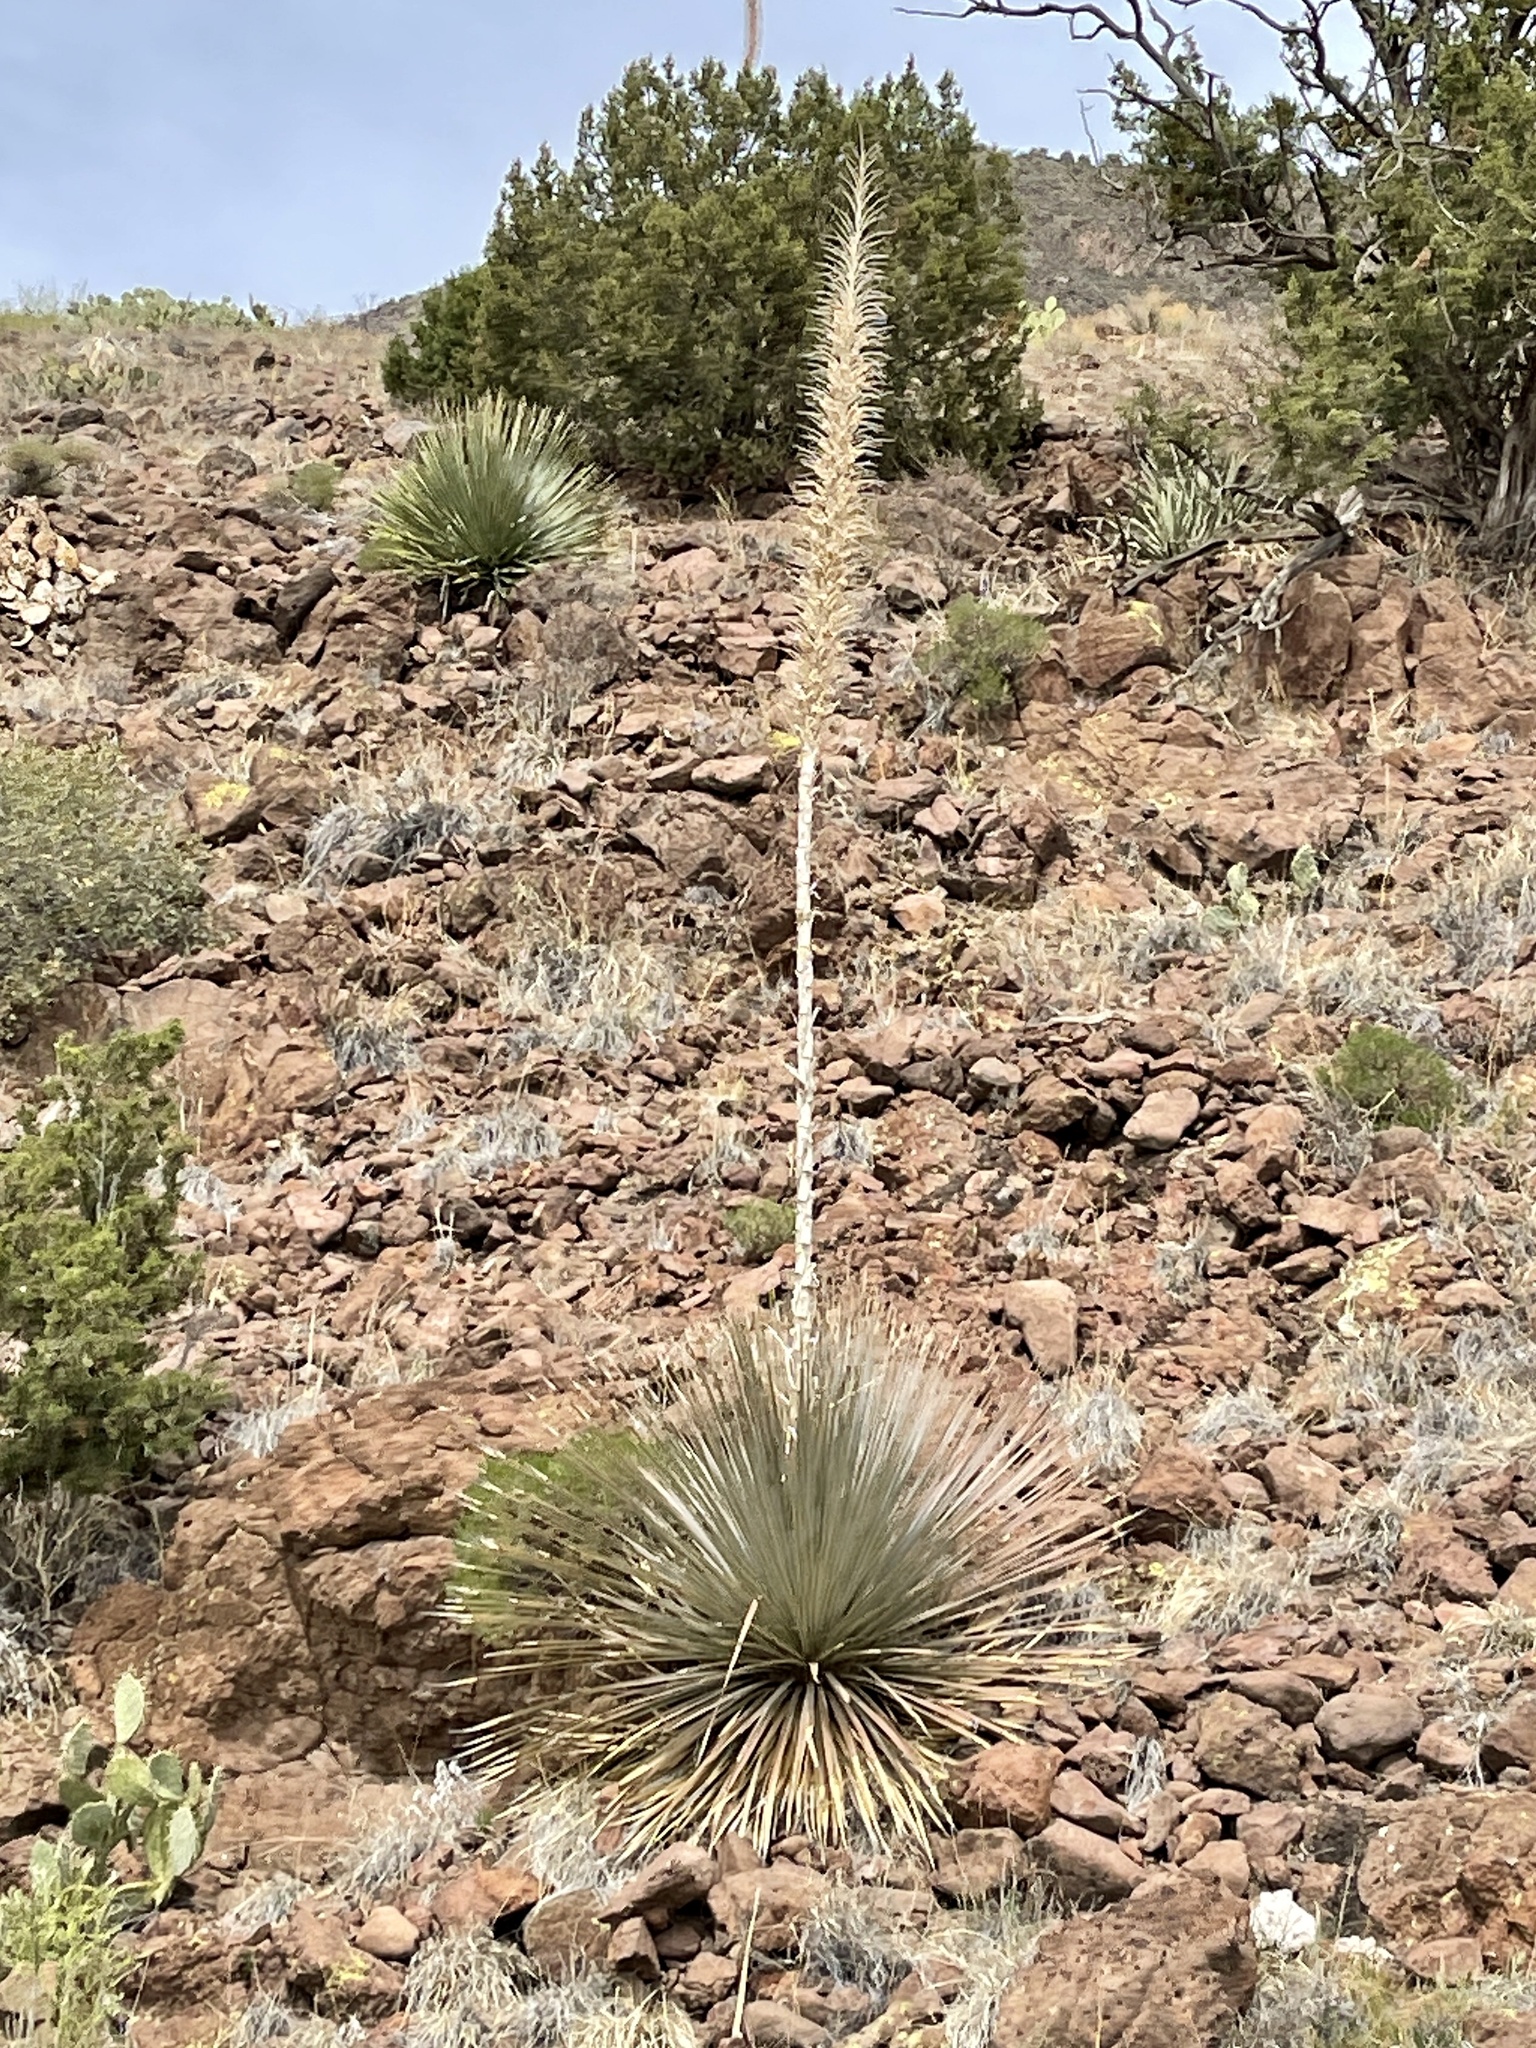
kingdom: Plantae
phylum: Tracheophyta
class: Liliopsida
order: Asparagales
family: Asparagaceae
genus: Dasylirion
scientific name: Dasylirion wheeleri
